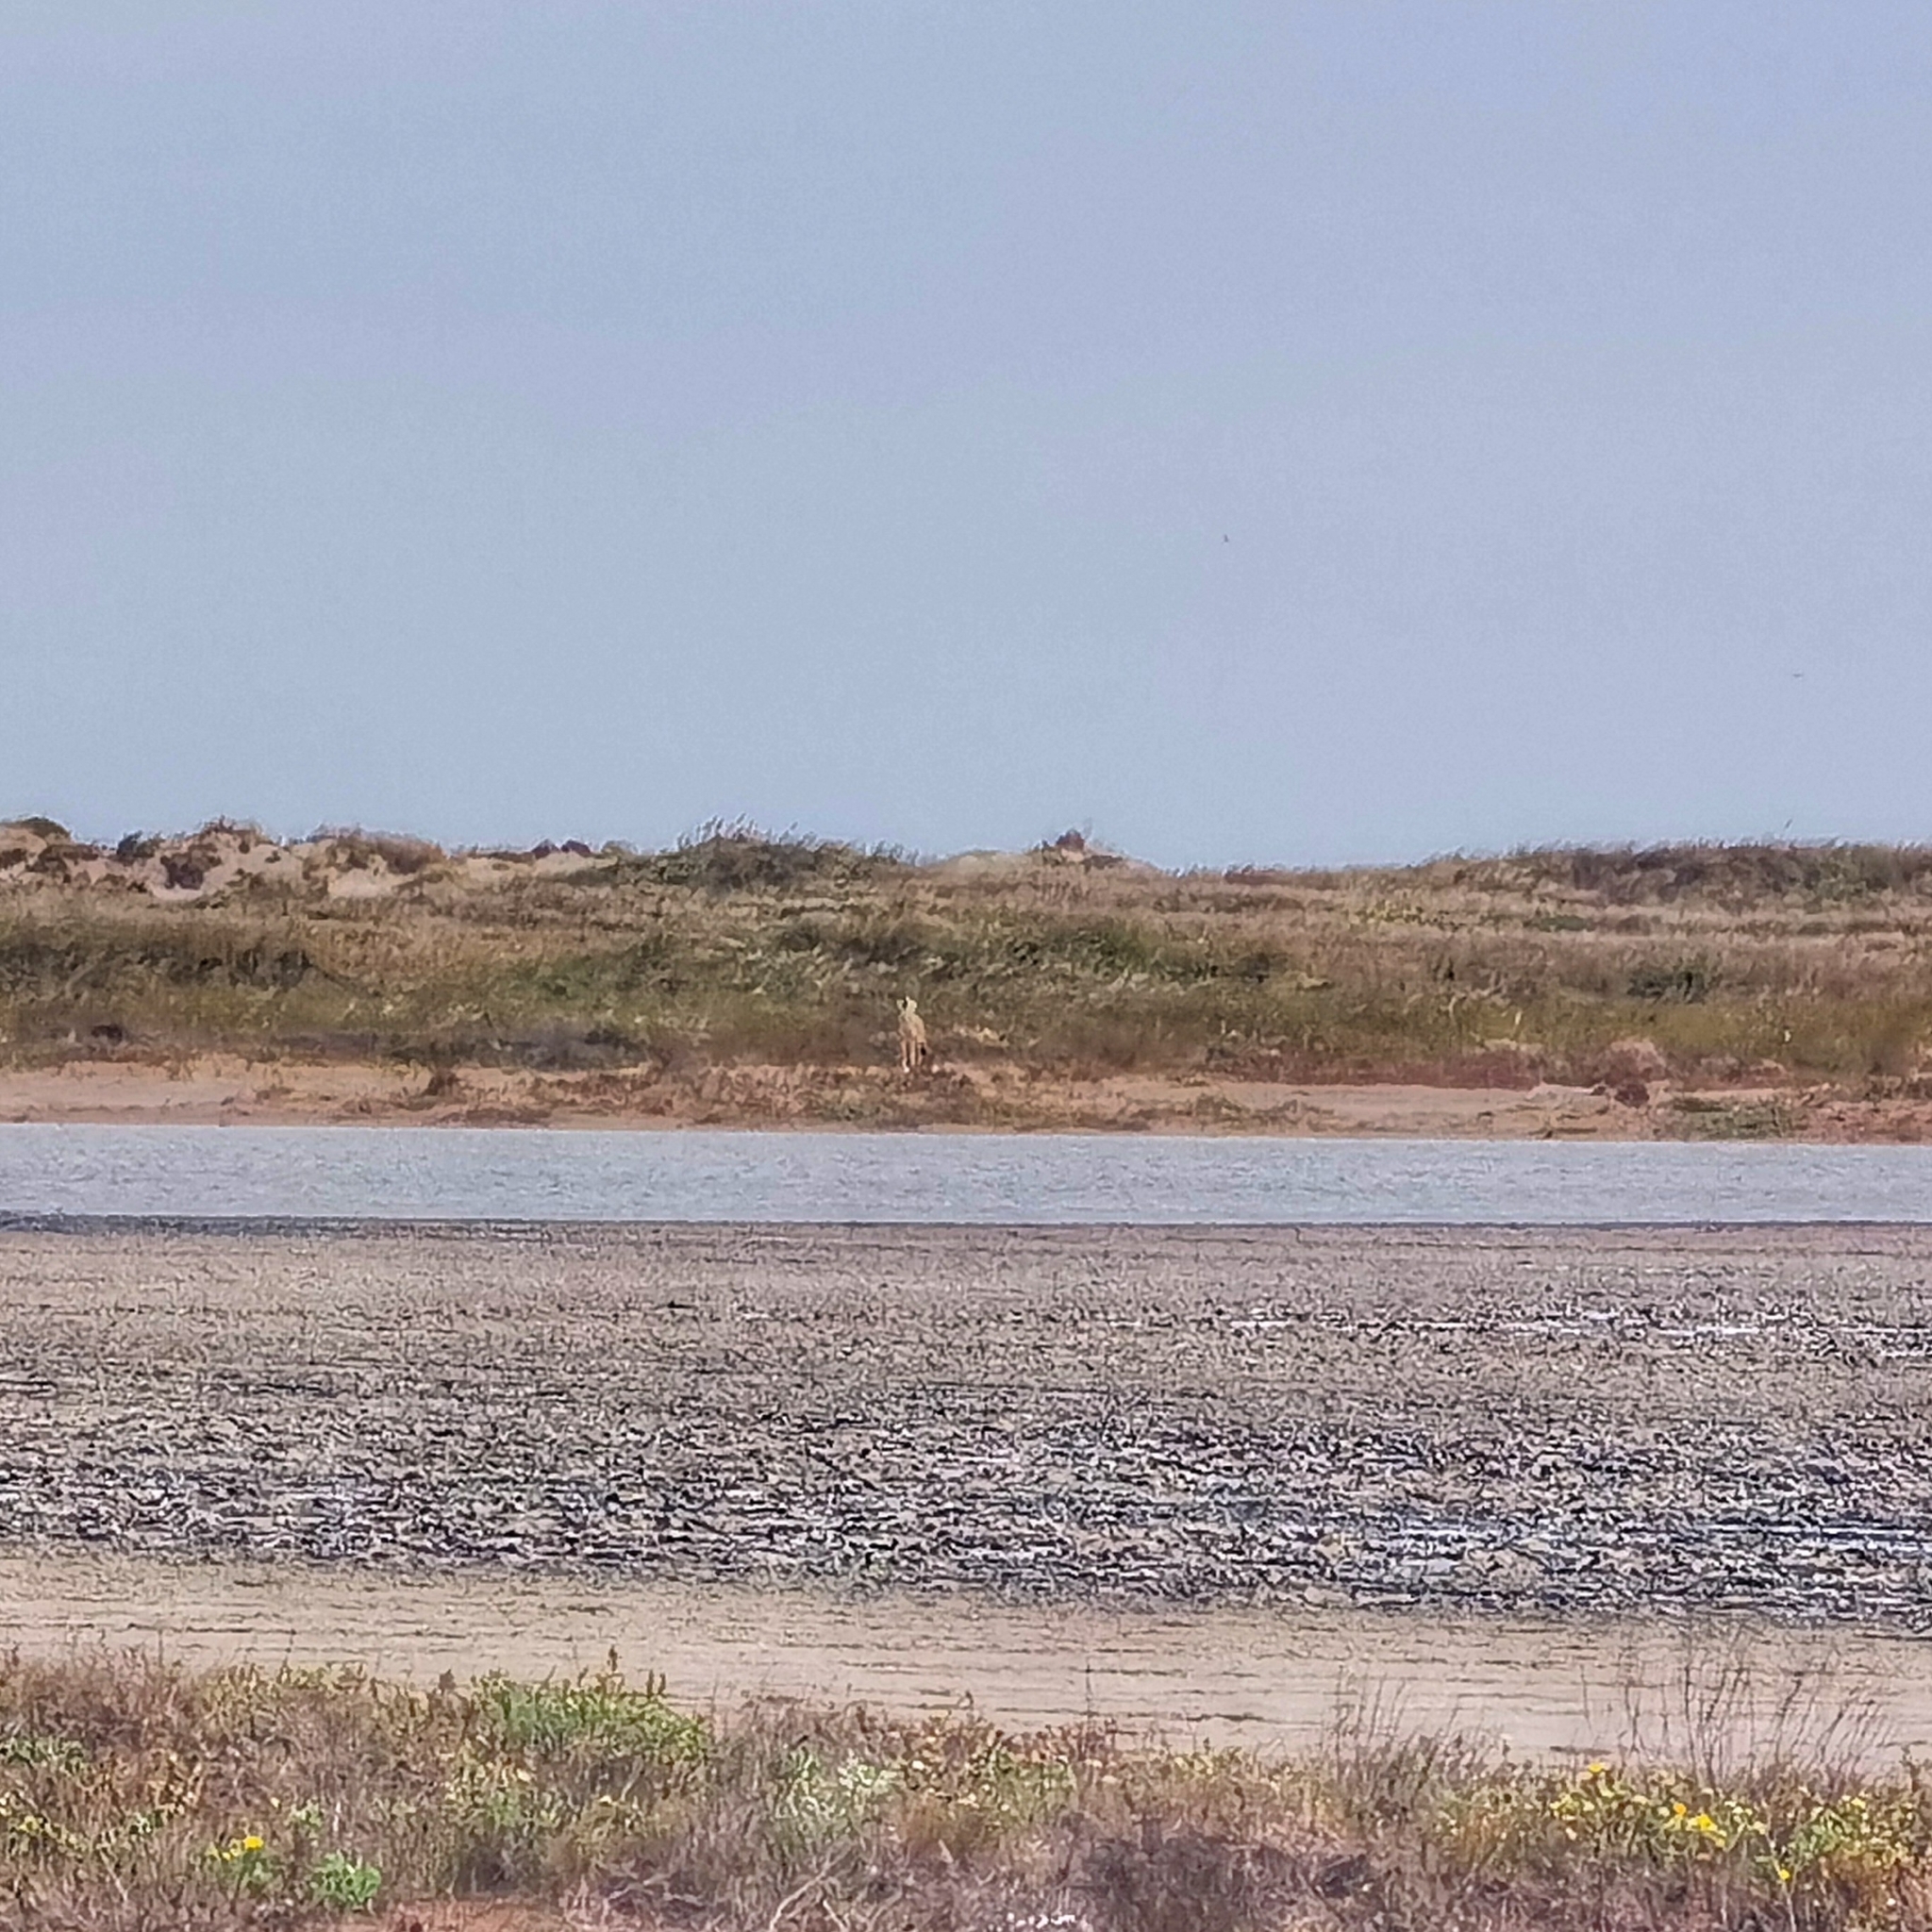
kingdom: Animalia
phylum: Chordata
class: Mammalia
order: Carnivora
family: Canidae
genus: Canis
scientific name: Canis latrans
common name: Coyote
